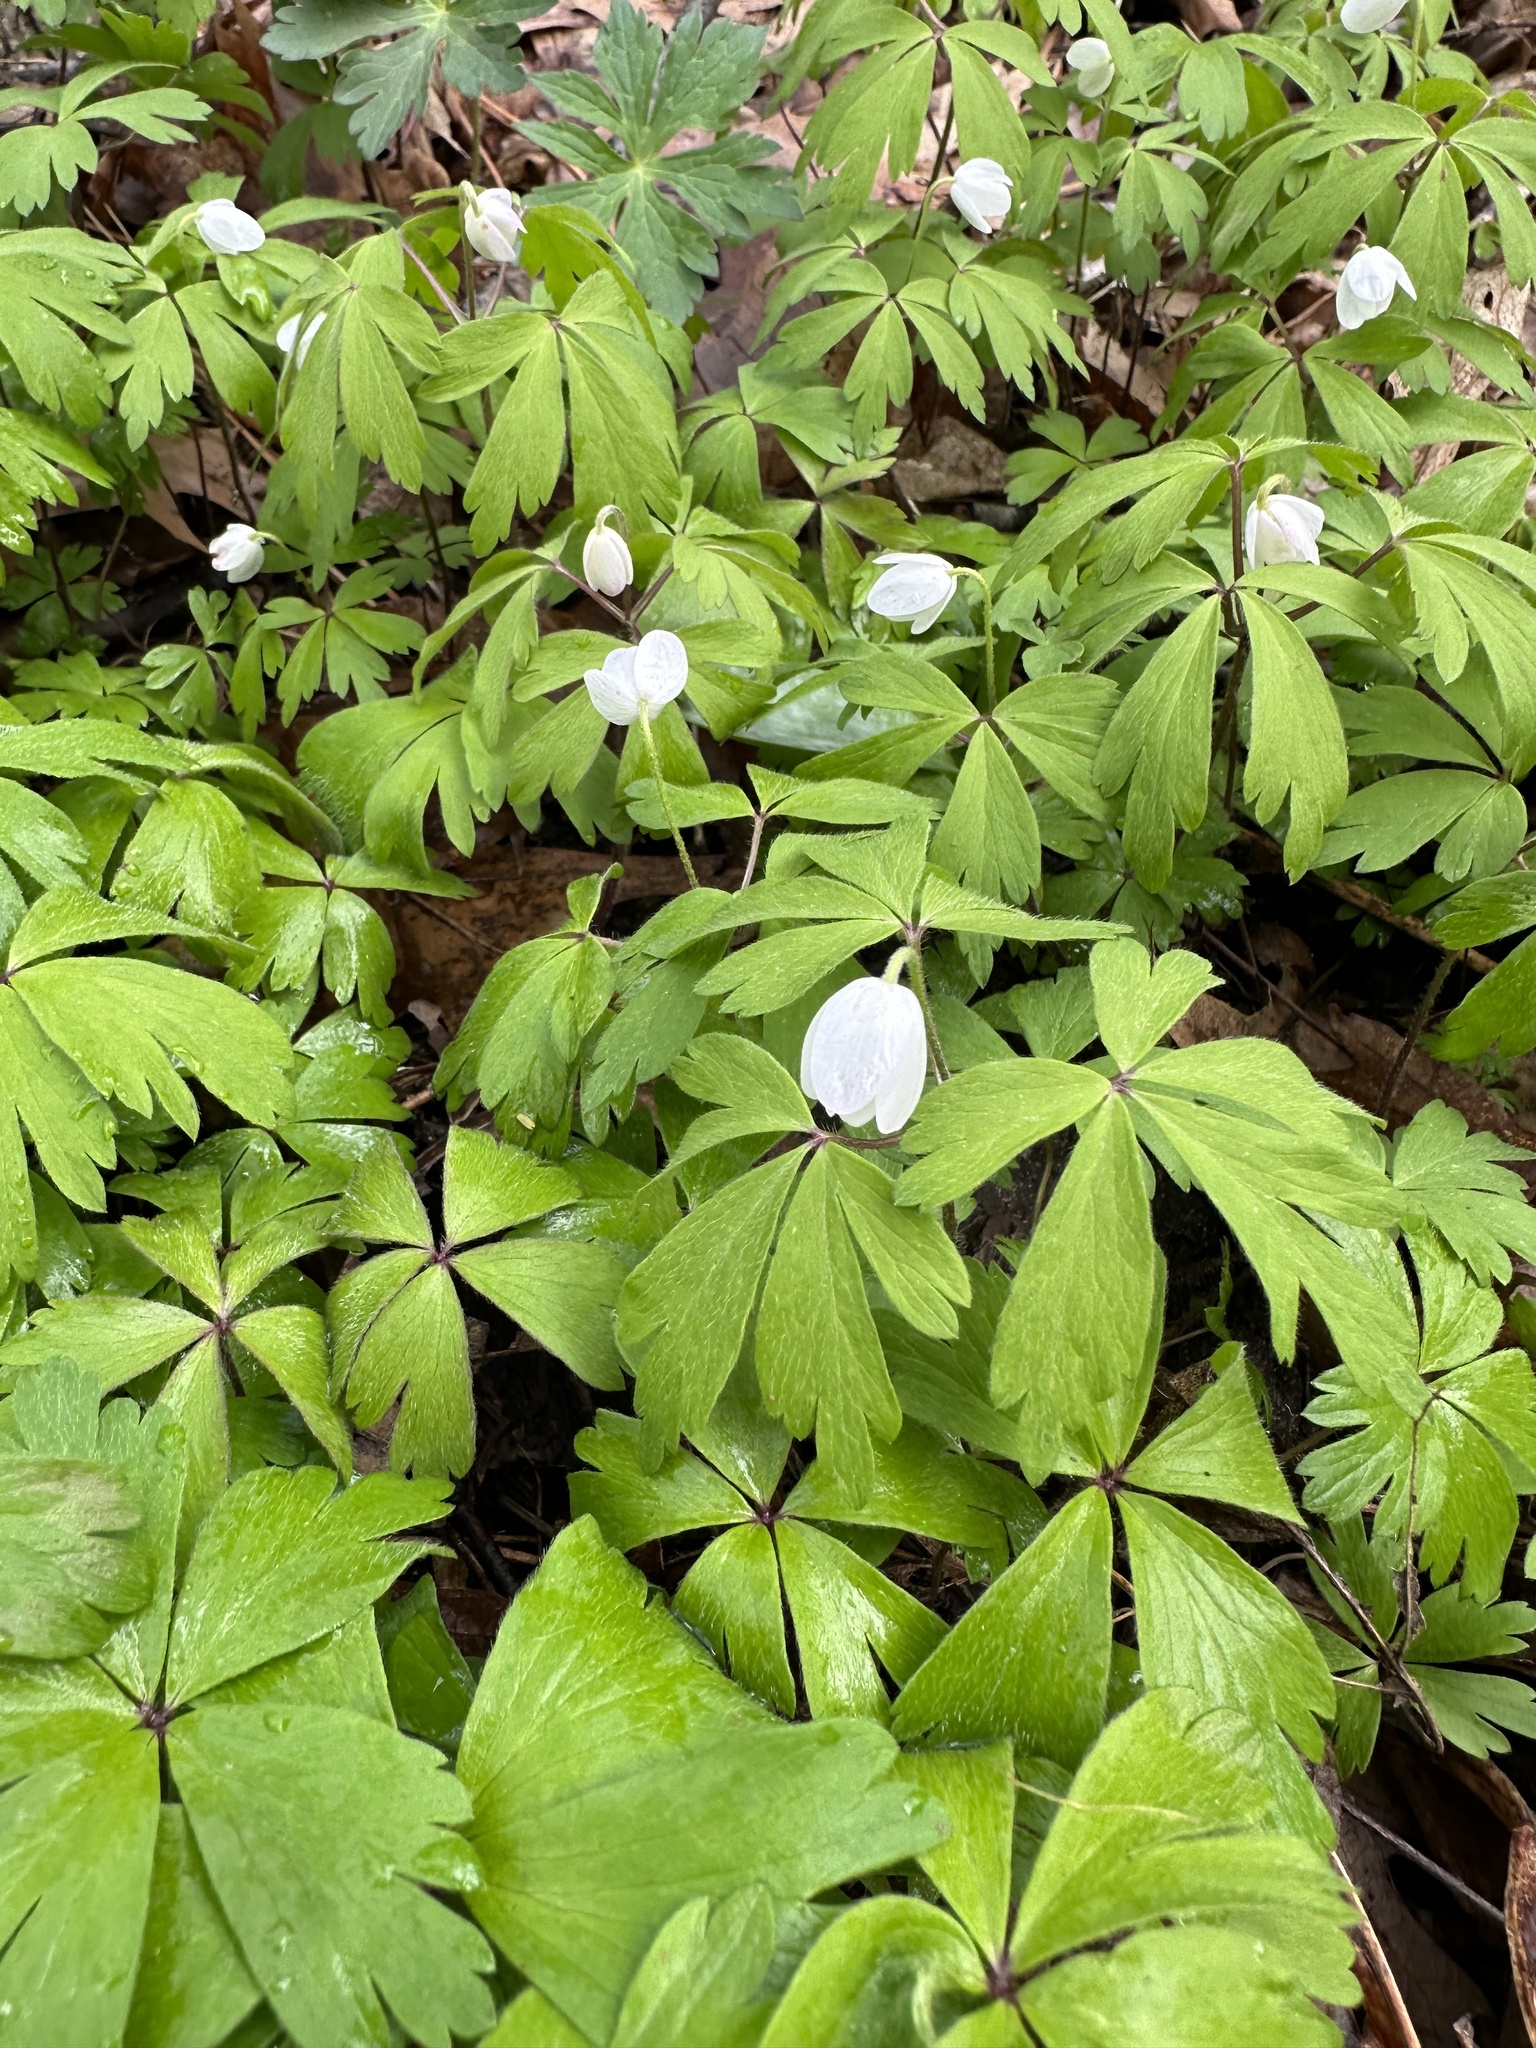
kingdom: Plantae
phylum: Tracheophyta
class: Magnoliopsida
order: Ranunculales
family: Ranunculaceae
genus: Anemone
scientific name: Anemone quinquefolia
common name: Wood anemone
